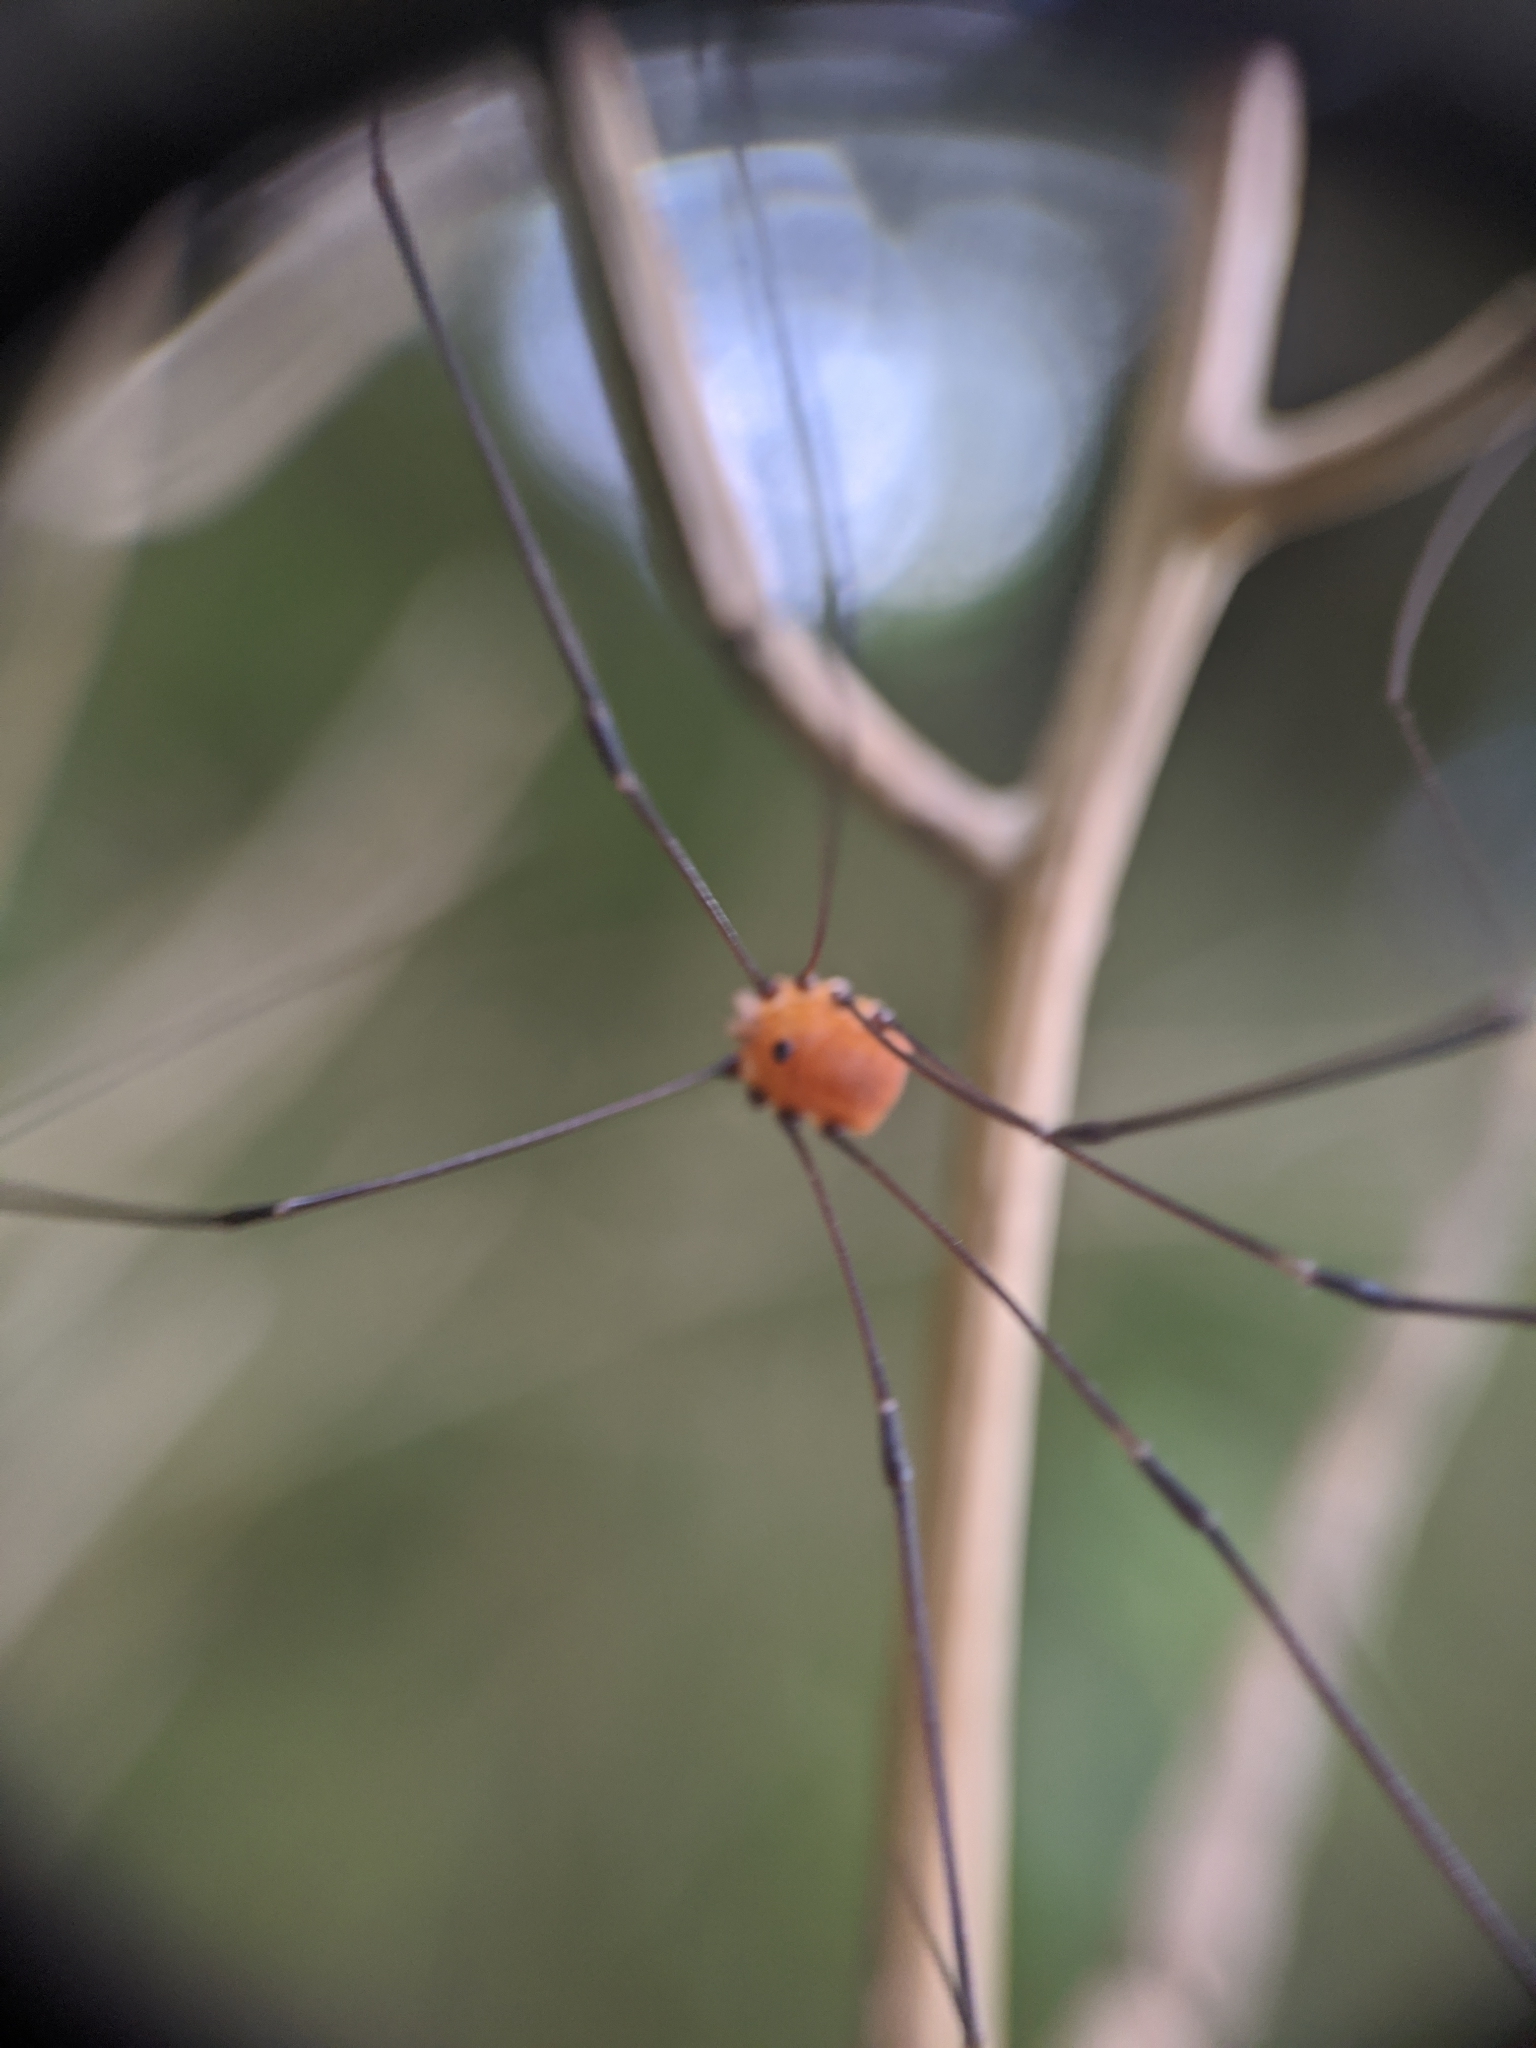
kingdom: Animalia
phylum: Arthropoda
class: Arachnida
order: Opiliones
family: Sclerosomatidae
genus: Leiobunum
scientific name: Leiobunum aldrichi
